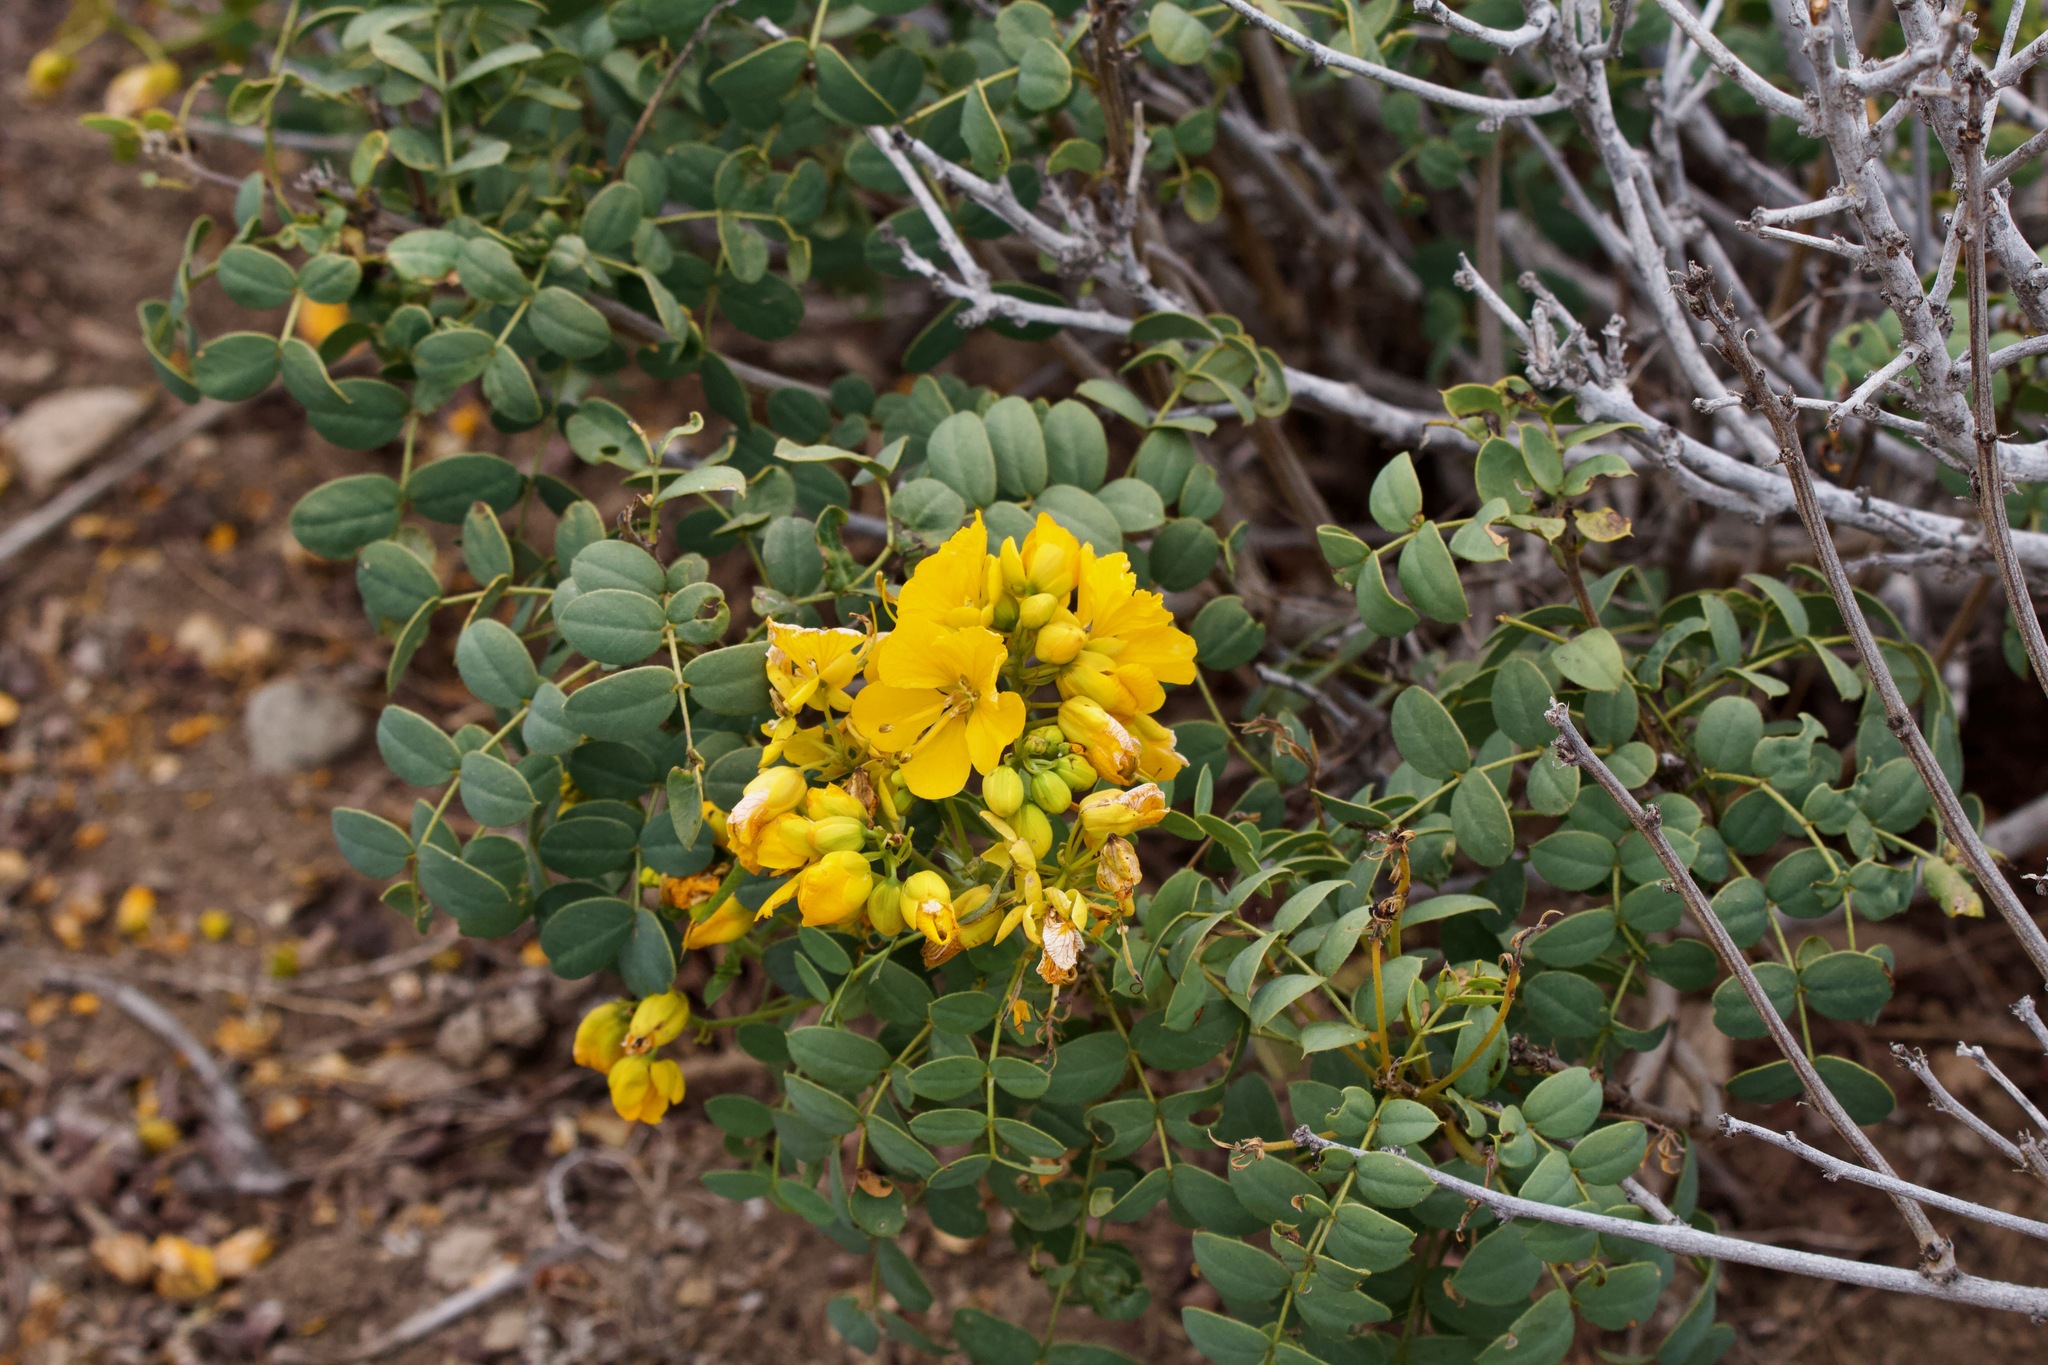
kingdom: Plantae
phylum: Tracheophyta
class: Magnoliopsida
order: Fabales
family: Fabaceae
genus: Senna
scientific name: Senna cumingii
